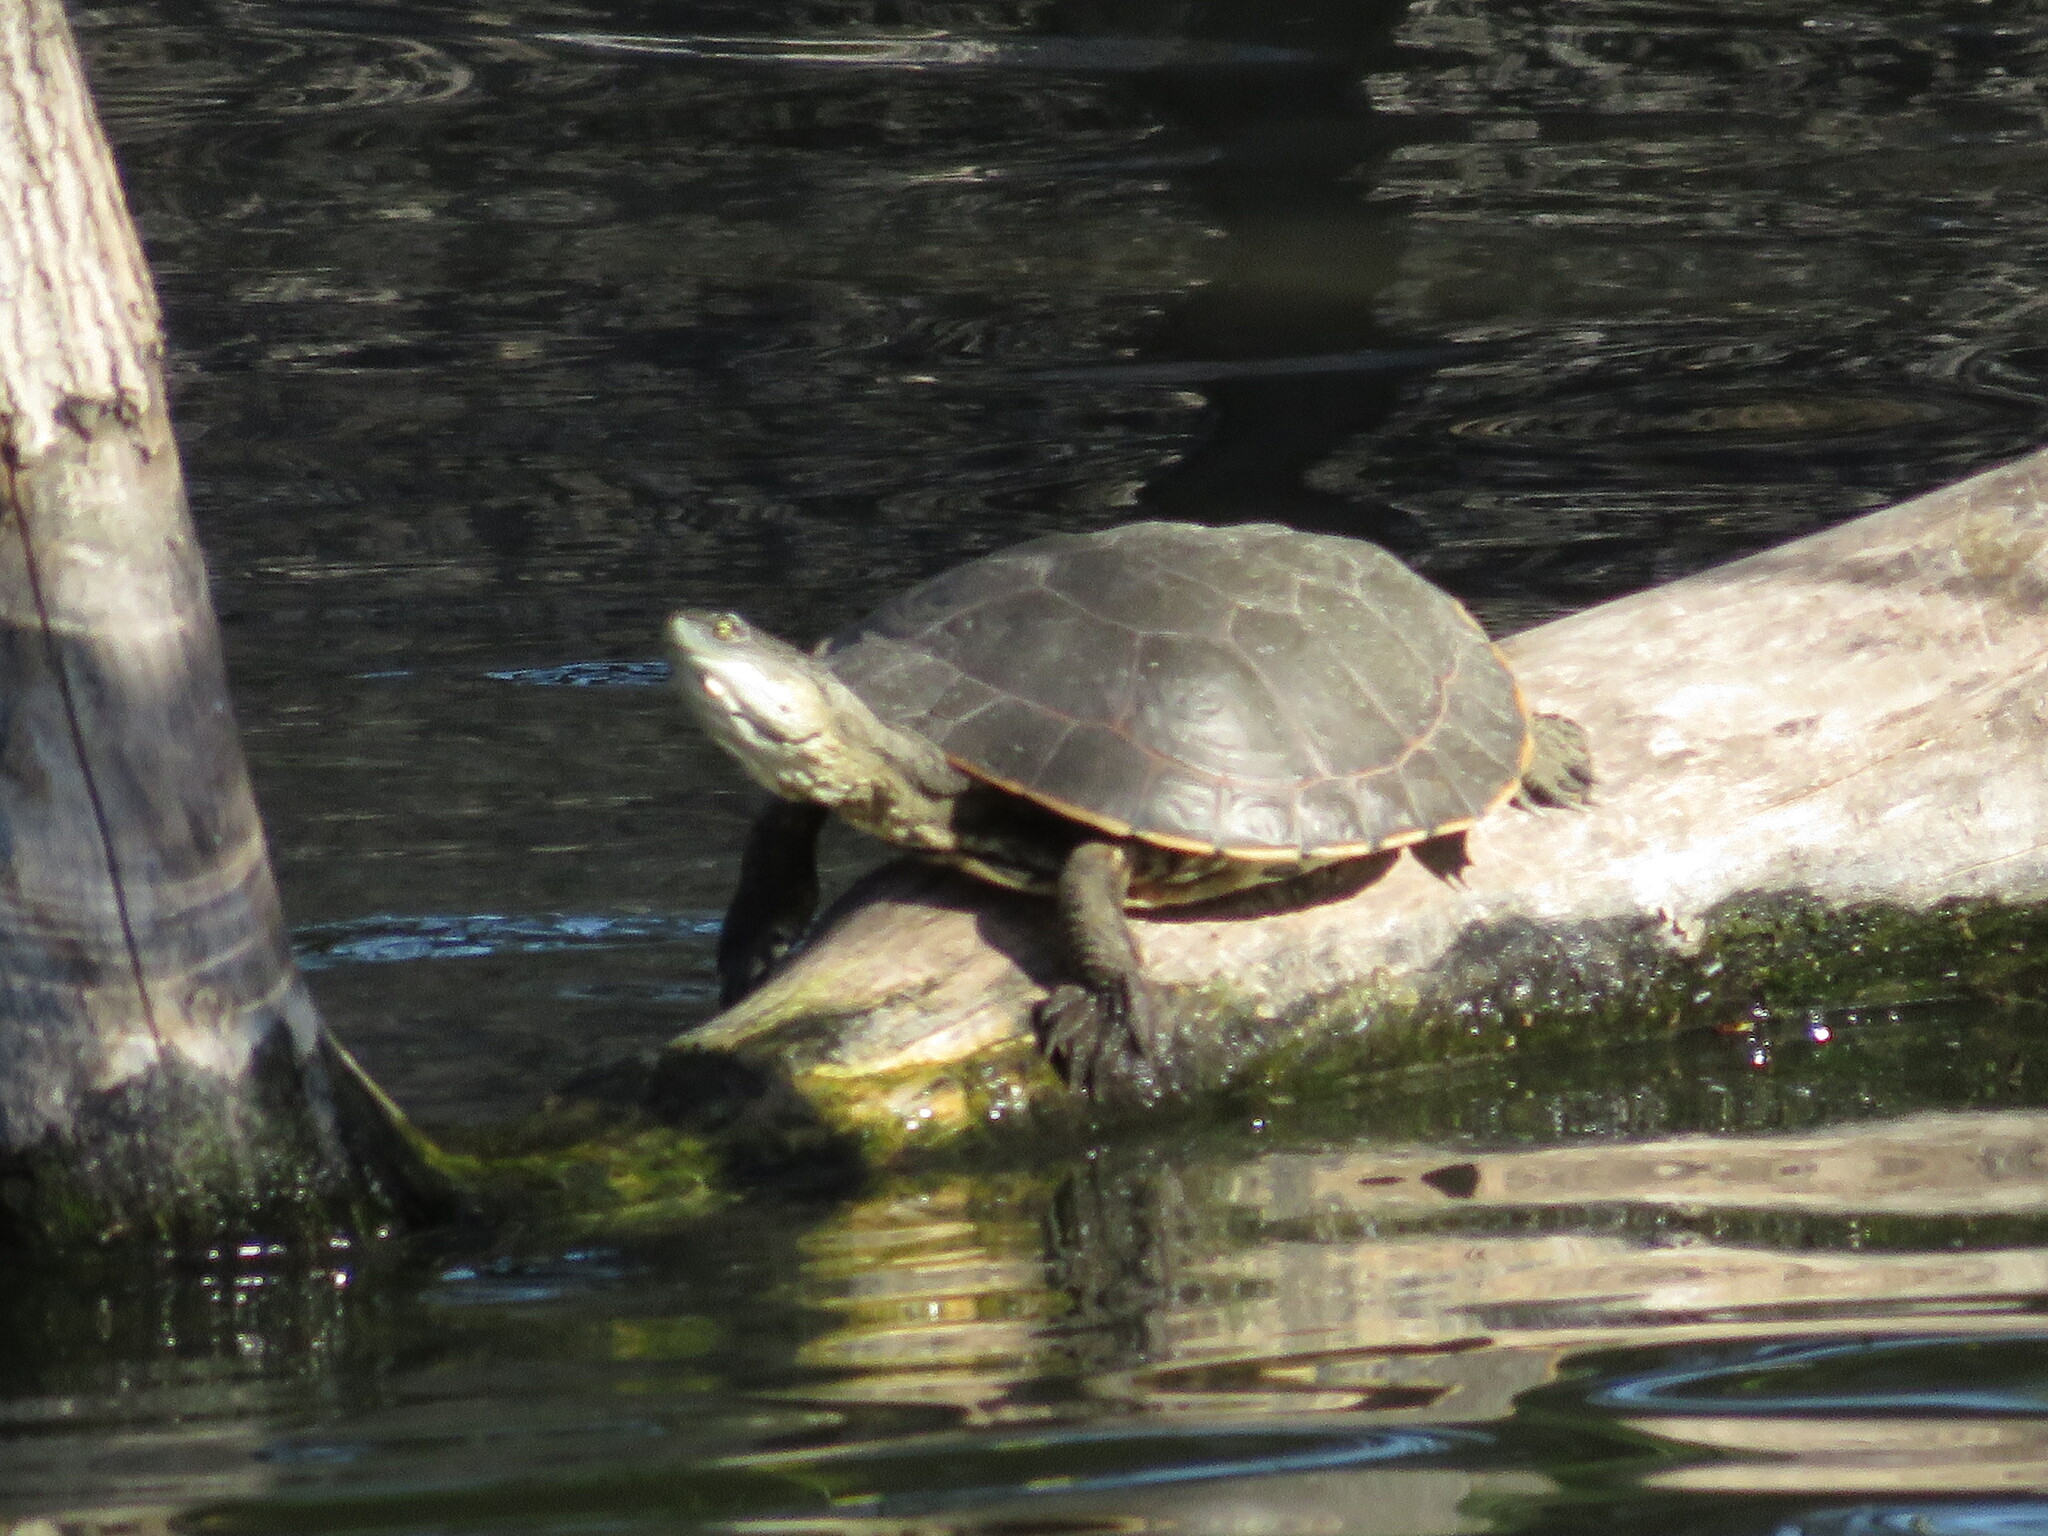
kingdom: Animalia
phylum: Chordata
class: Testudines
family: Chelidae
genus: Phrynops
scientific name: Phrynops hilarii
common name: Side-necked turtle of saint hillaire
